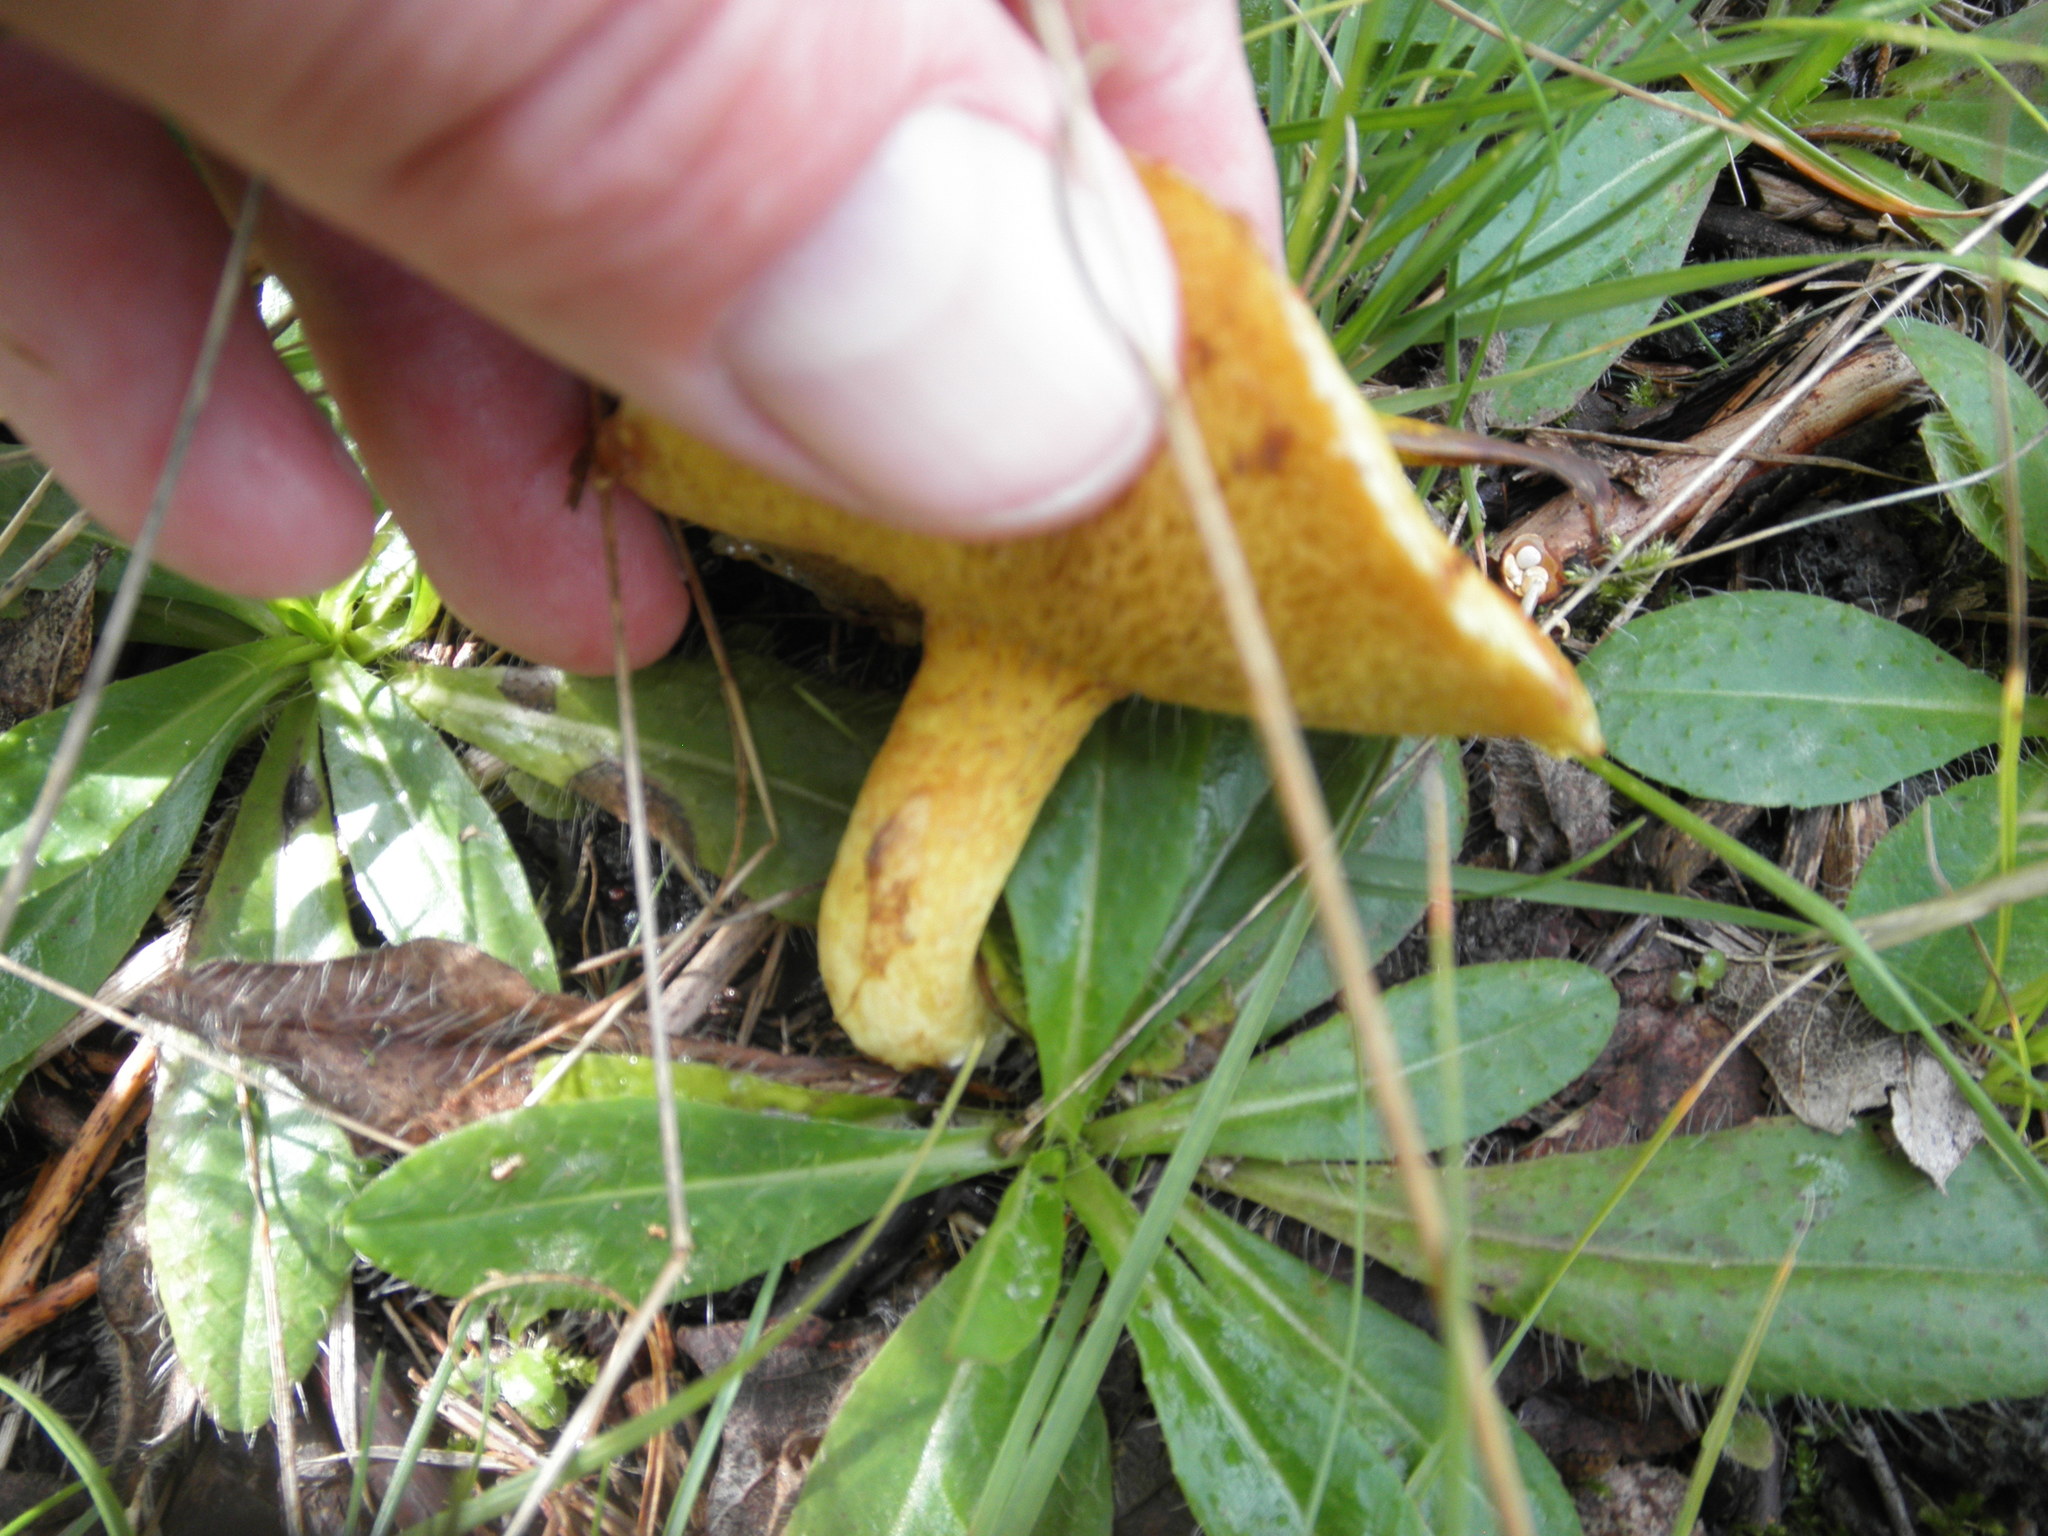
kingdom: Fungi
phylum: Basidiomycota
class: Agaricomycetes
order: Boletales
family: Suillaceae
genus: Suillus
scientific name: Suillus americanus
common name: Chicken fat mushroom
